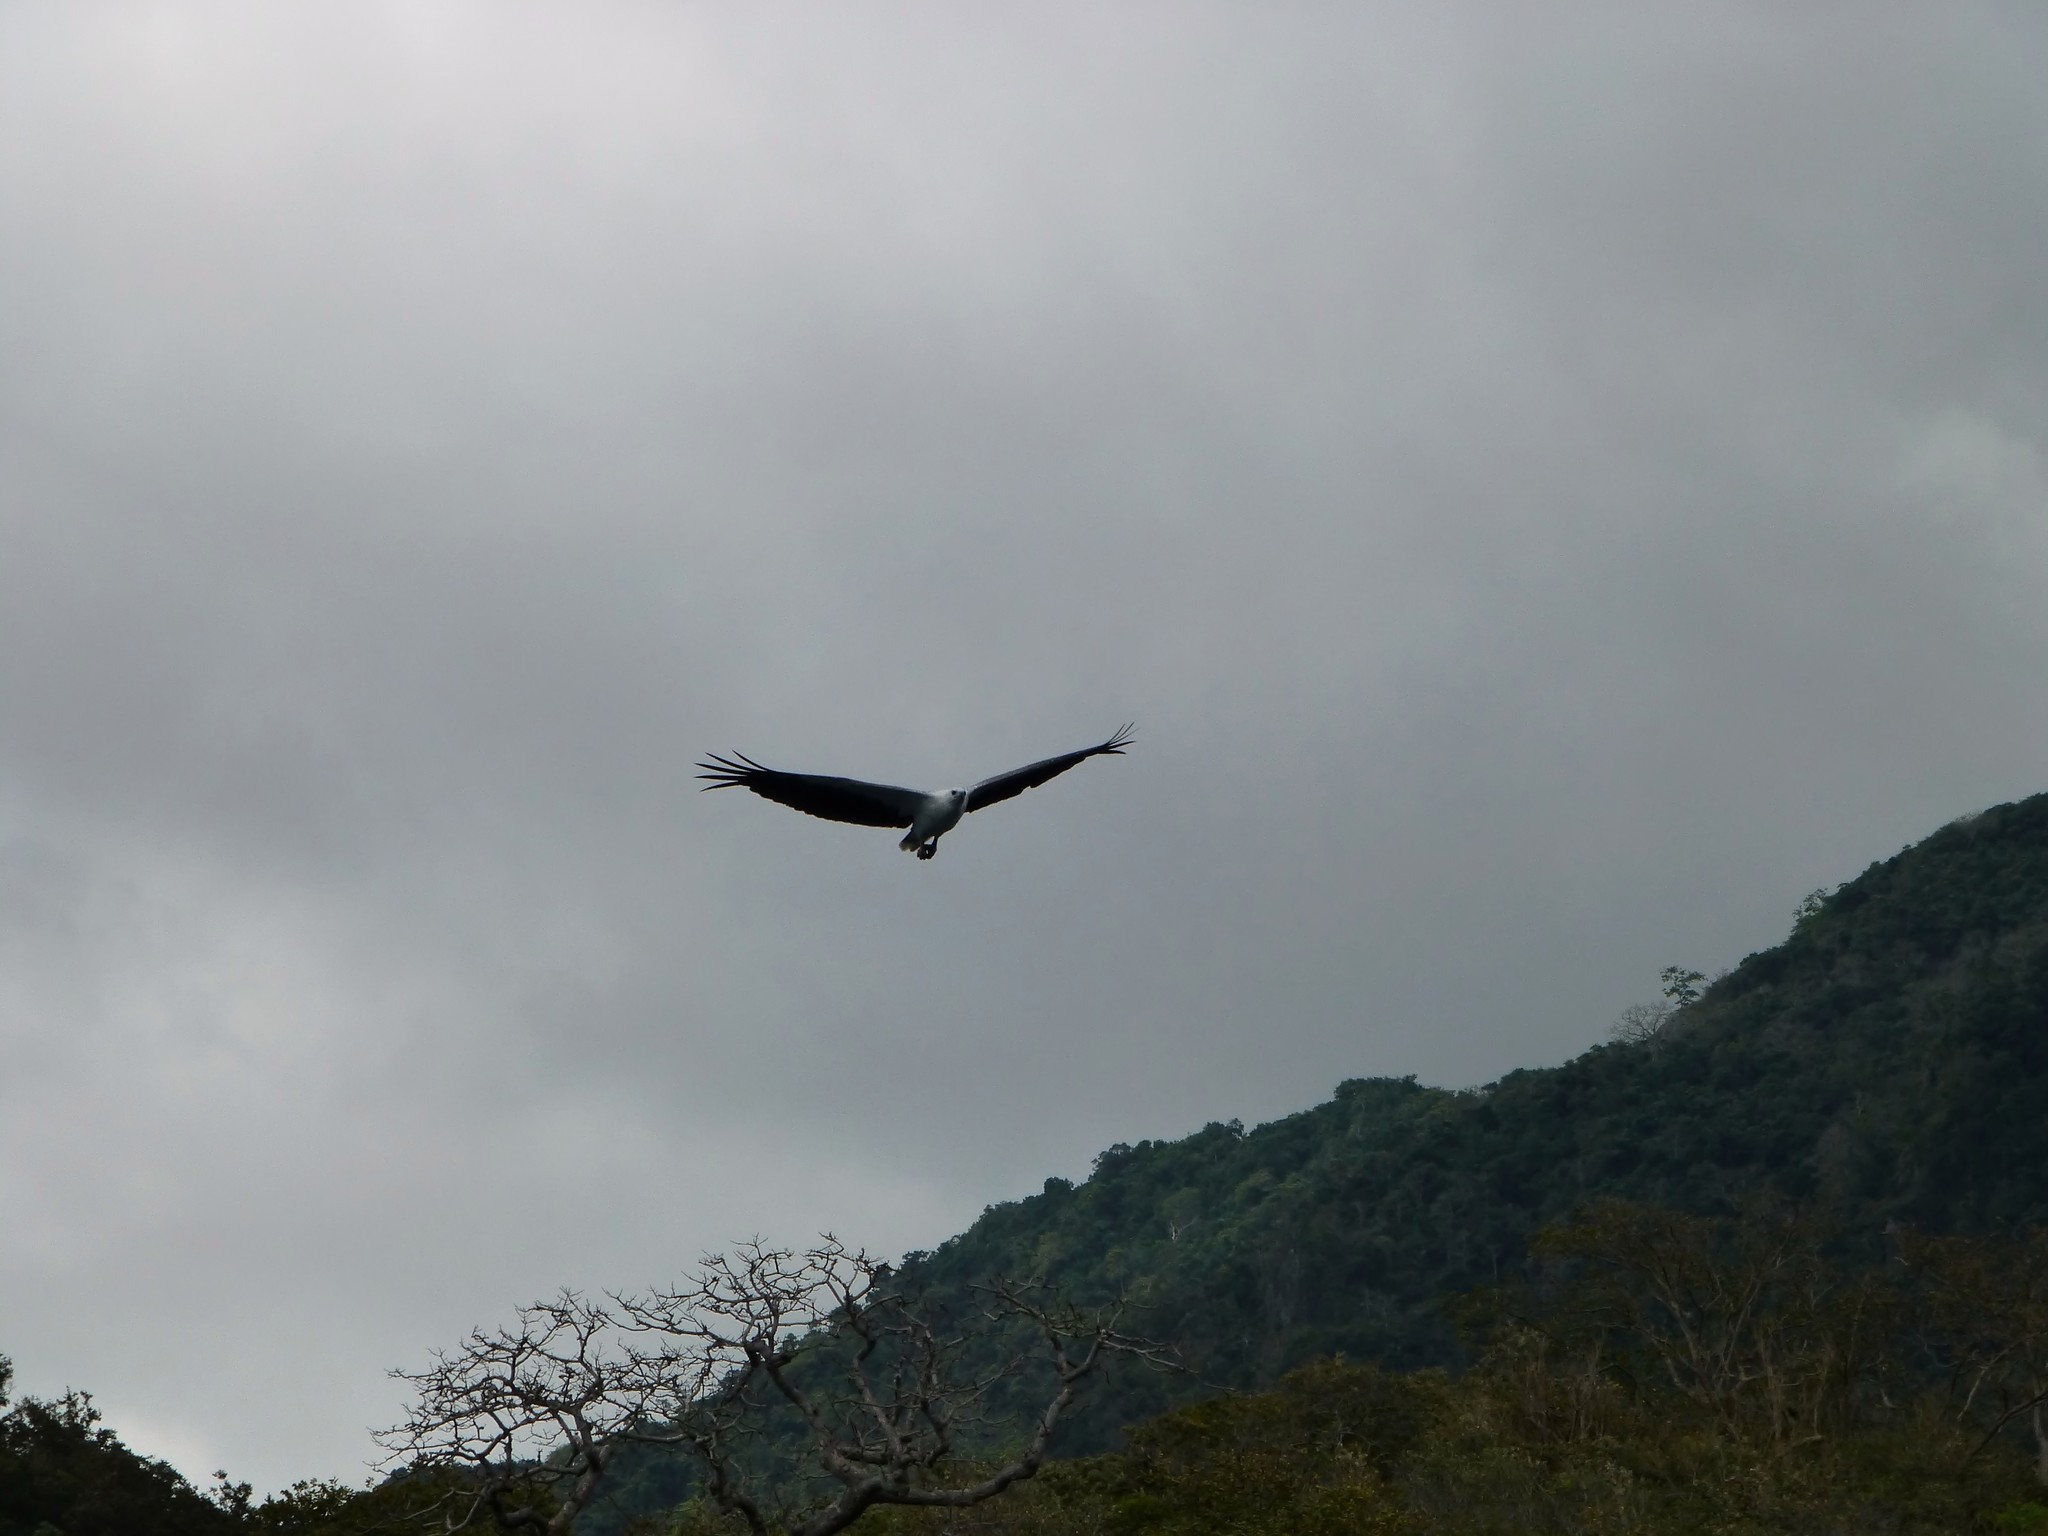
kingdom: Animalia
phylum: Chordata
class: Aves
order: Accipitriformes
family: Accipitridae
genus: Haliaeetus
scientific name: Haliaeetus leucogaster
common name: White-bellied sea eagle
